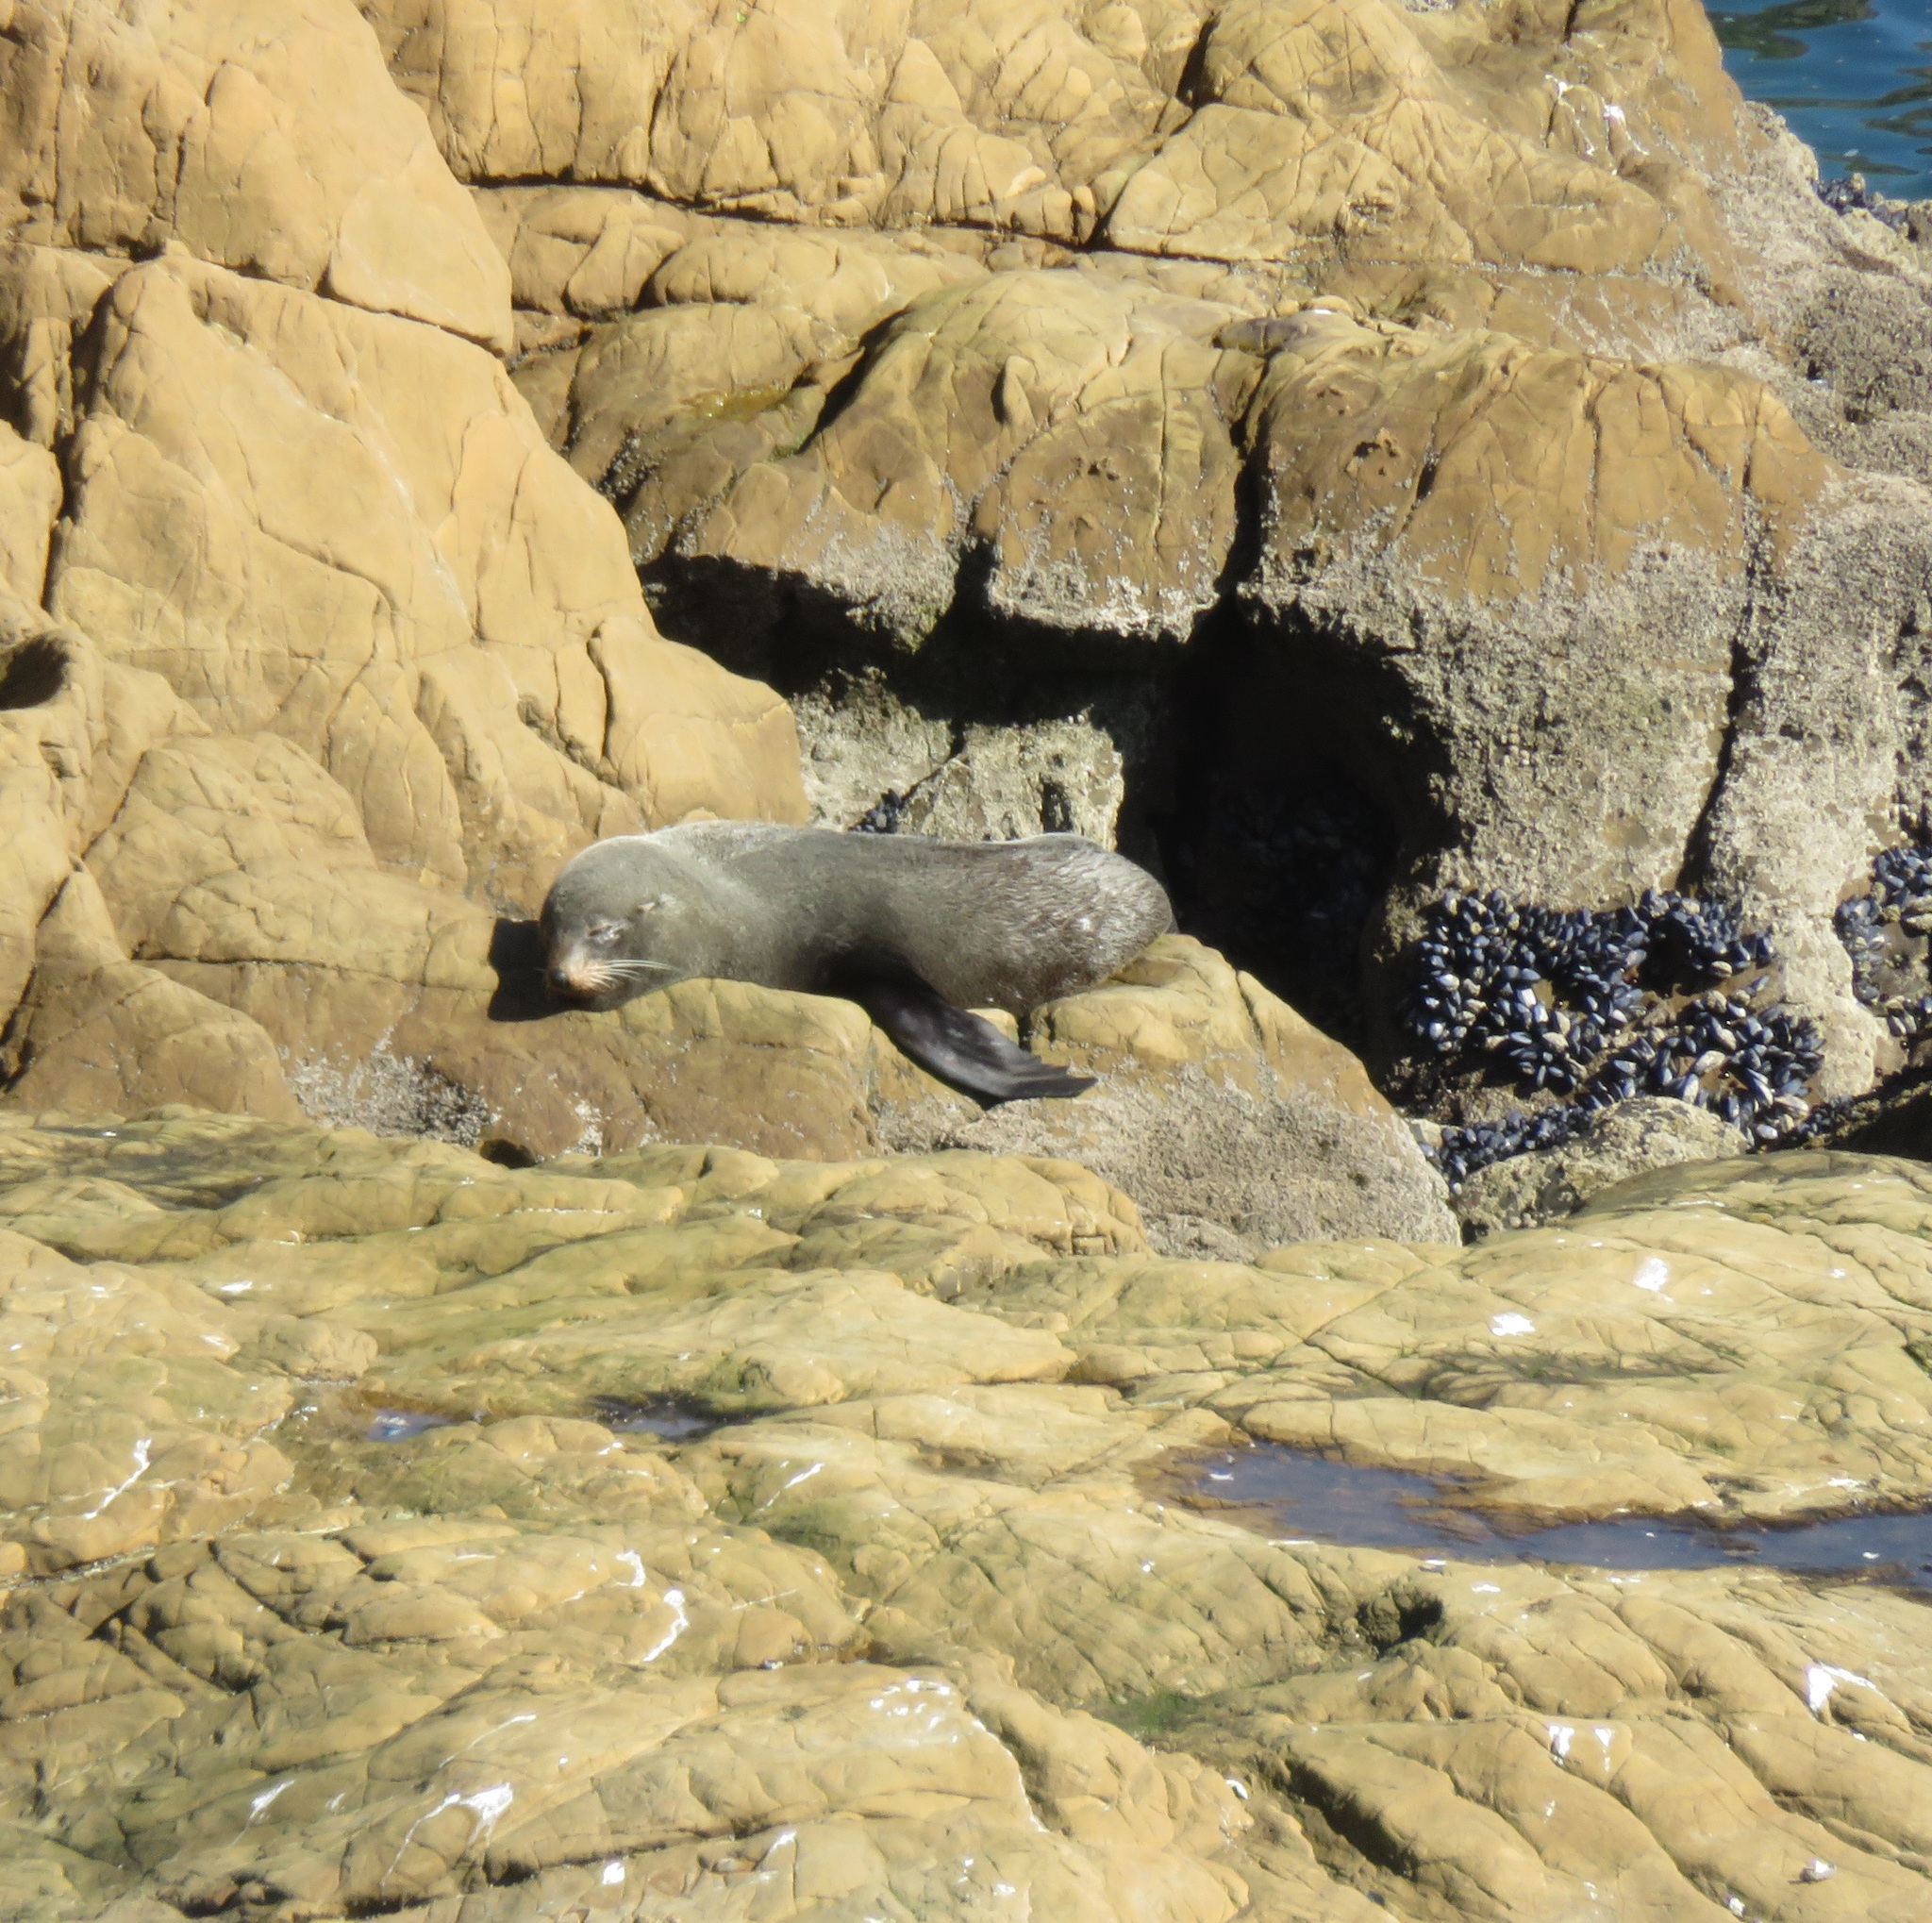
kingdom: Animalia
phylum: Chordata
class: Mammalia
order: Carnivora
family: Otariidae
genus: Arctocephalus
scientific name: Arctocephalus forsteri
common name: New zealand fur seal
